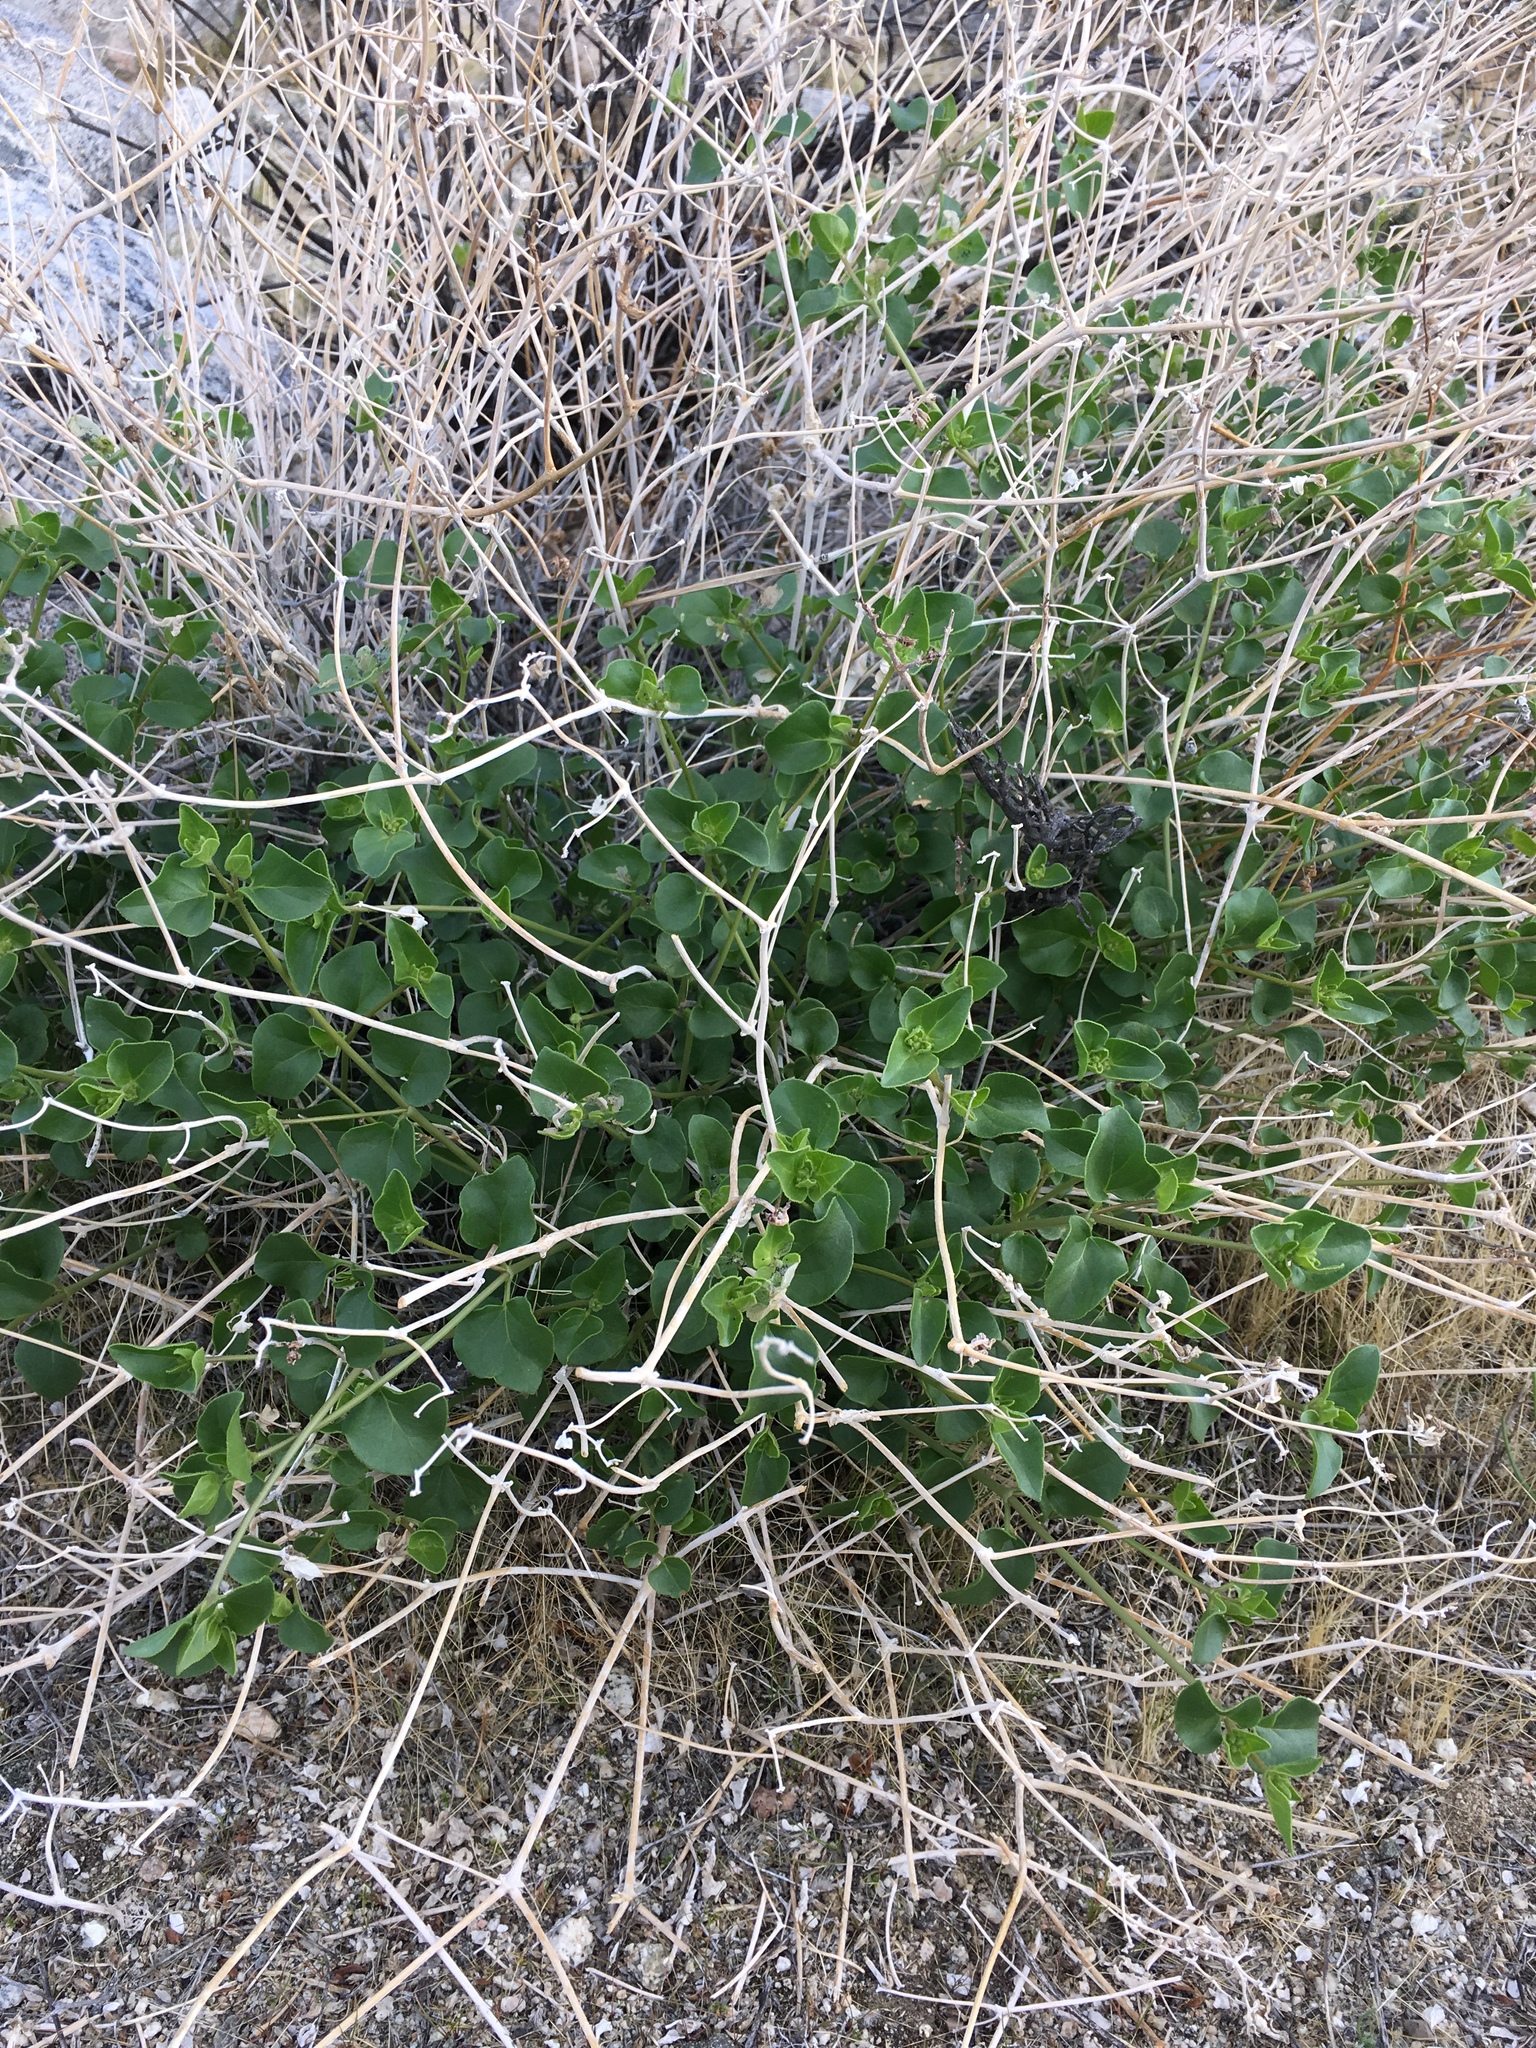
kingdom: Plantae
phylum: Tracheophyta
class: Magnoliopsida
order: Caryophyllales
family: Nyctaginaceae
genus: Mirabilis
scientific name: Mirabilis laevis
